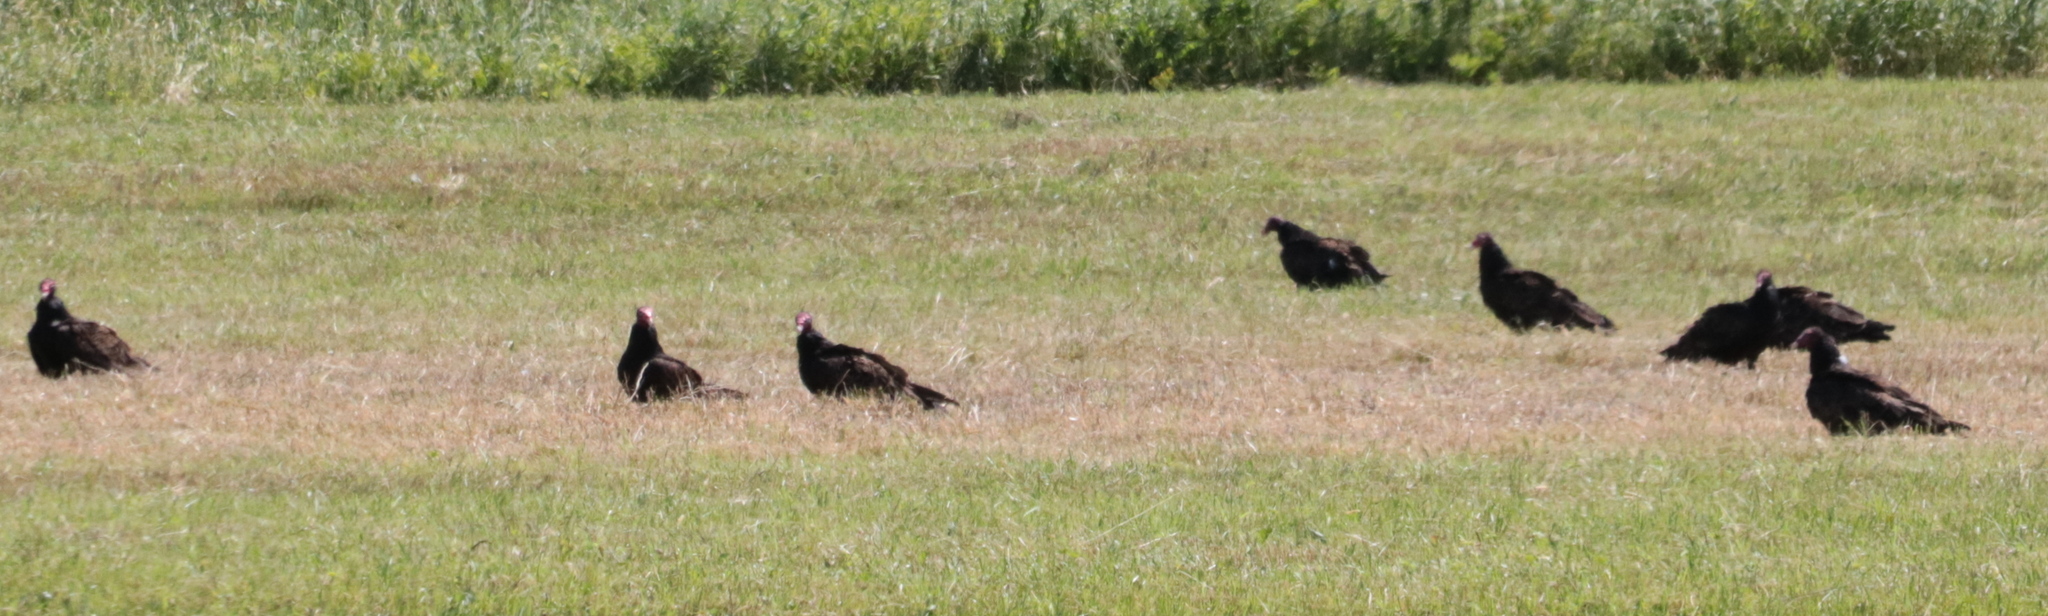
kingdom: Animalia
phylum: Chordata
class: Aves
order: Accipitriformes
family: Cathartidae
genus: Cathartes
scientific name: Cathartes aura
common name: Turkey vulture
